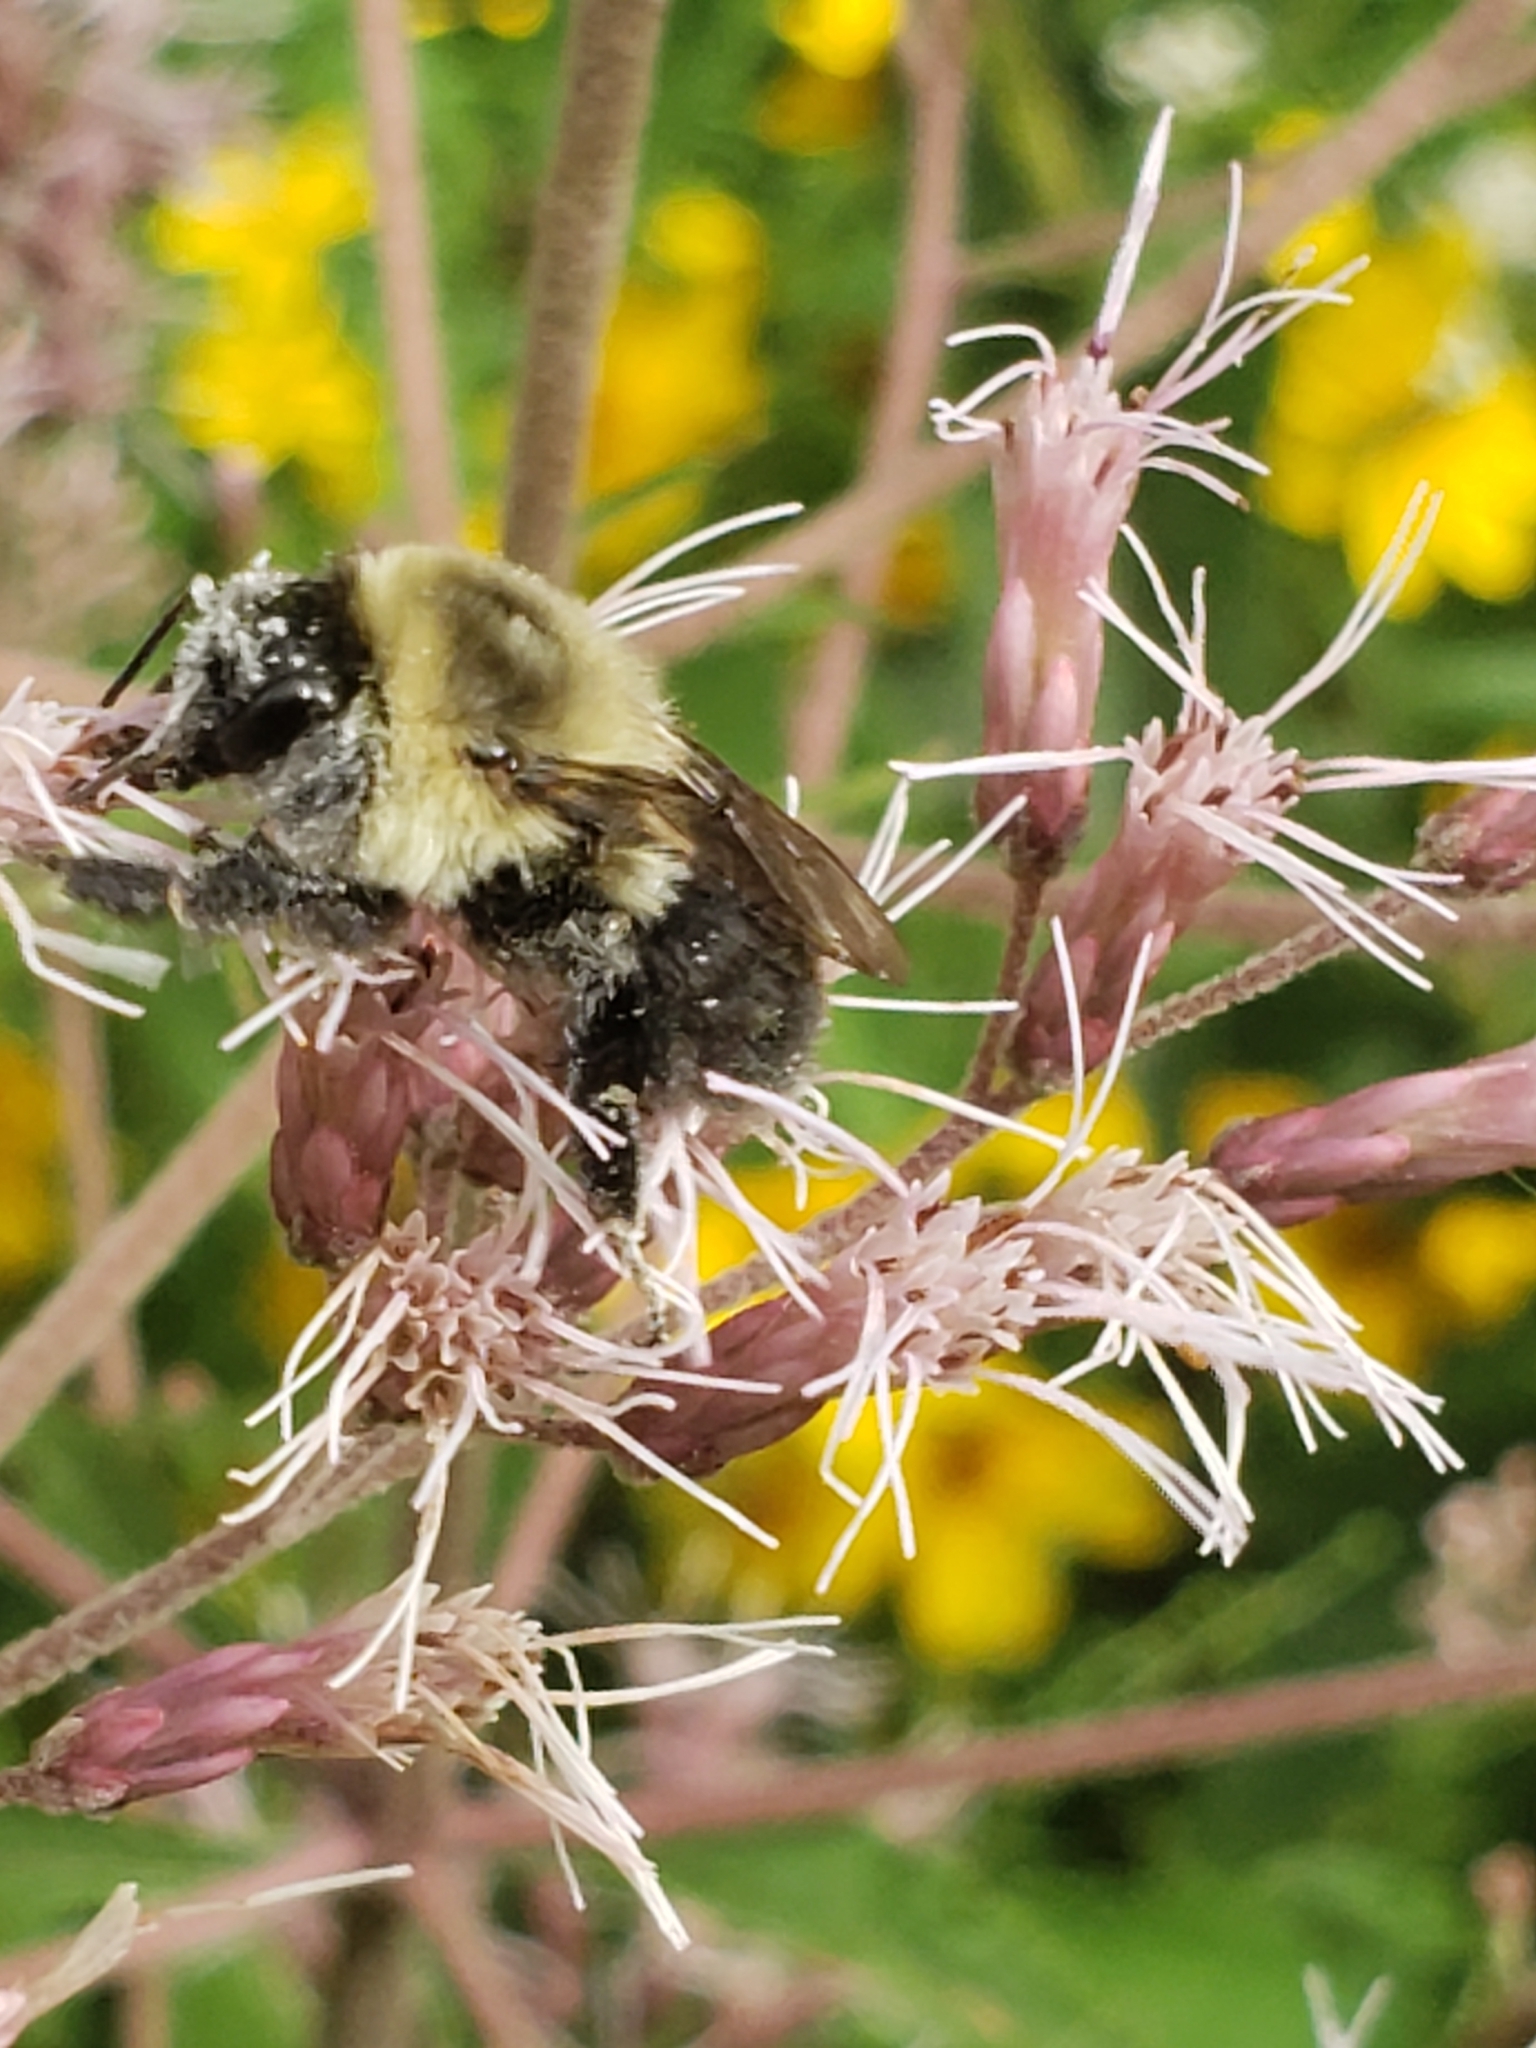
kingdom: Animalia
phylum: Arthropoda
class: Insecta
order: Hymenoptera
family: Apidae
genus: Bombus
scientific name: Bombus impatiens
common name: Common eastern bumble bee
